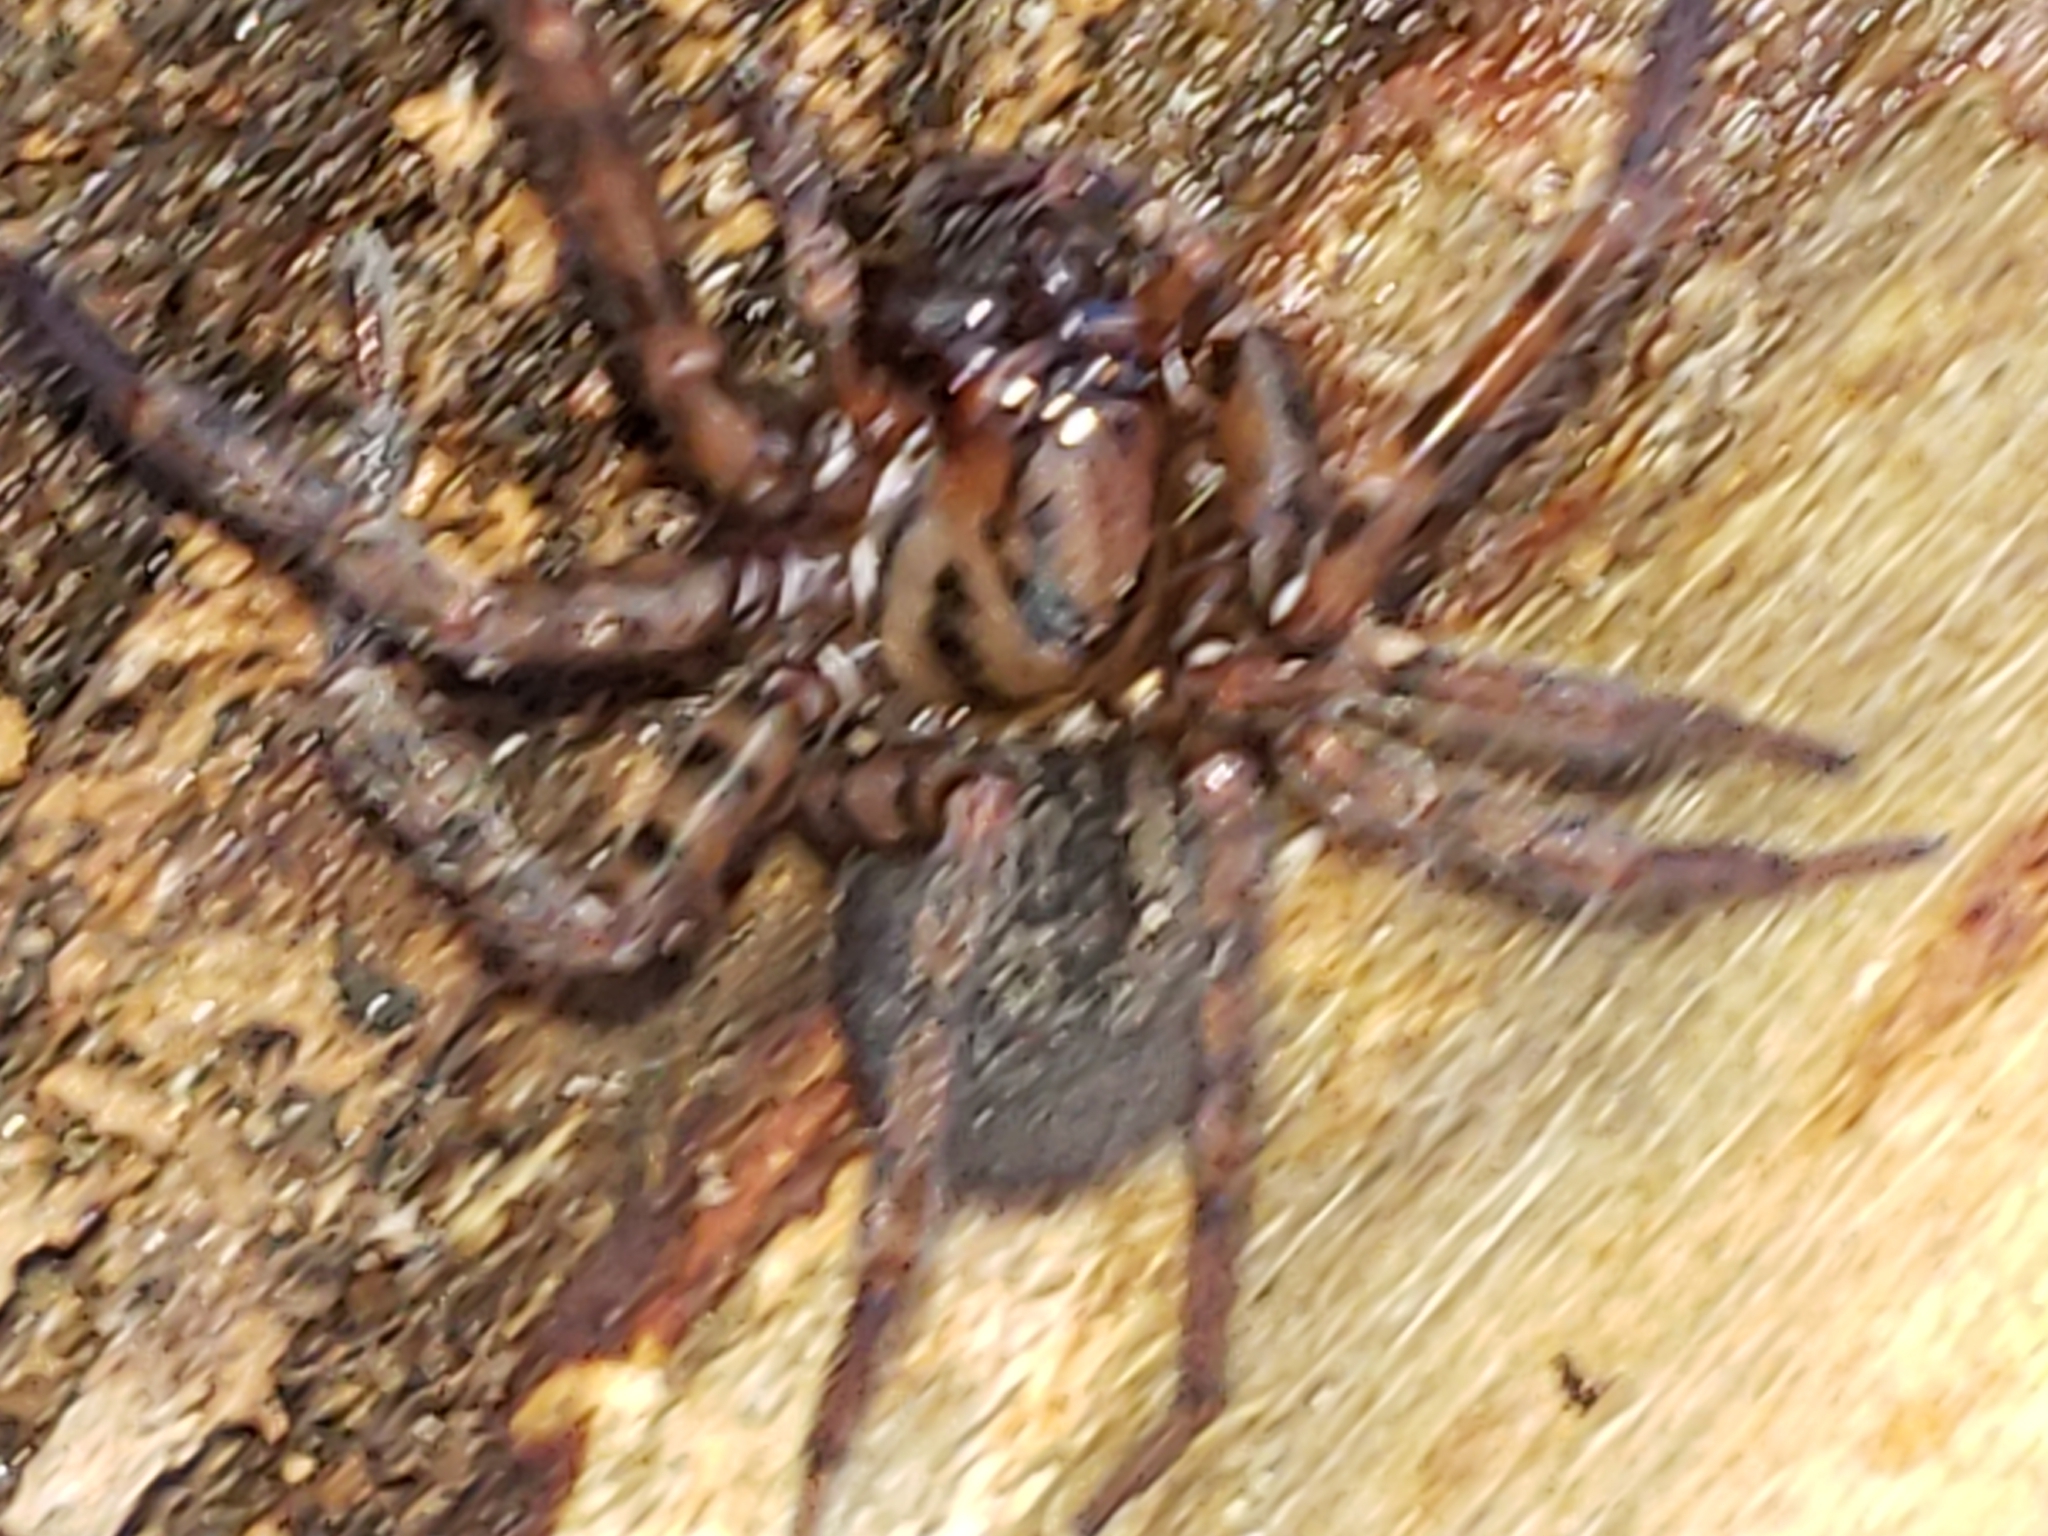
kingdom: Animalia
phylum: Arthropoda
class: Arachnida
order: Araneae
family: Agelenidae
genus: Coras
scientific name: Coras
